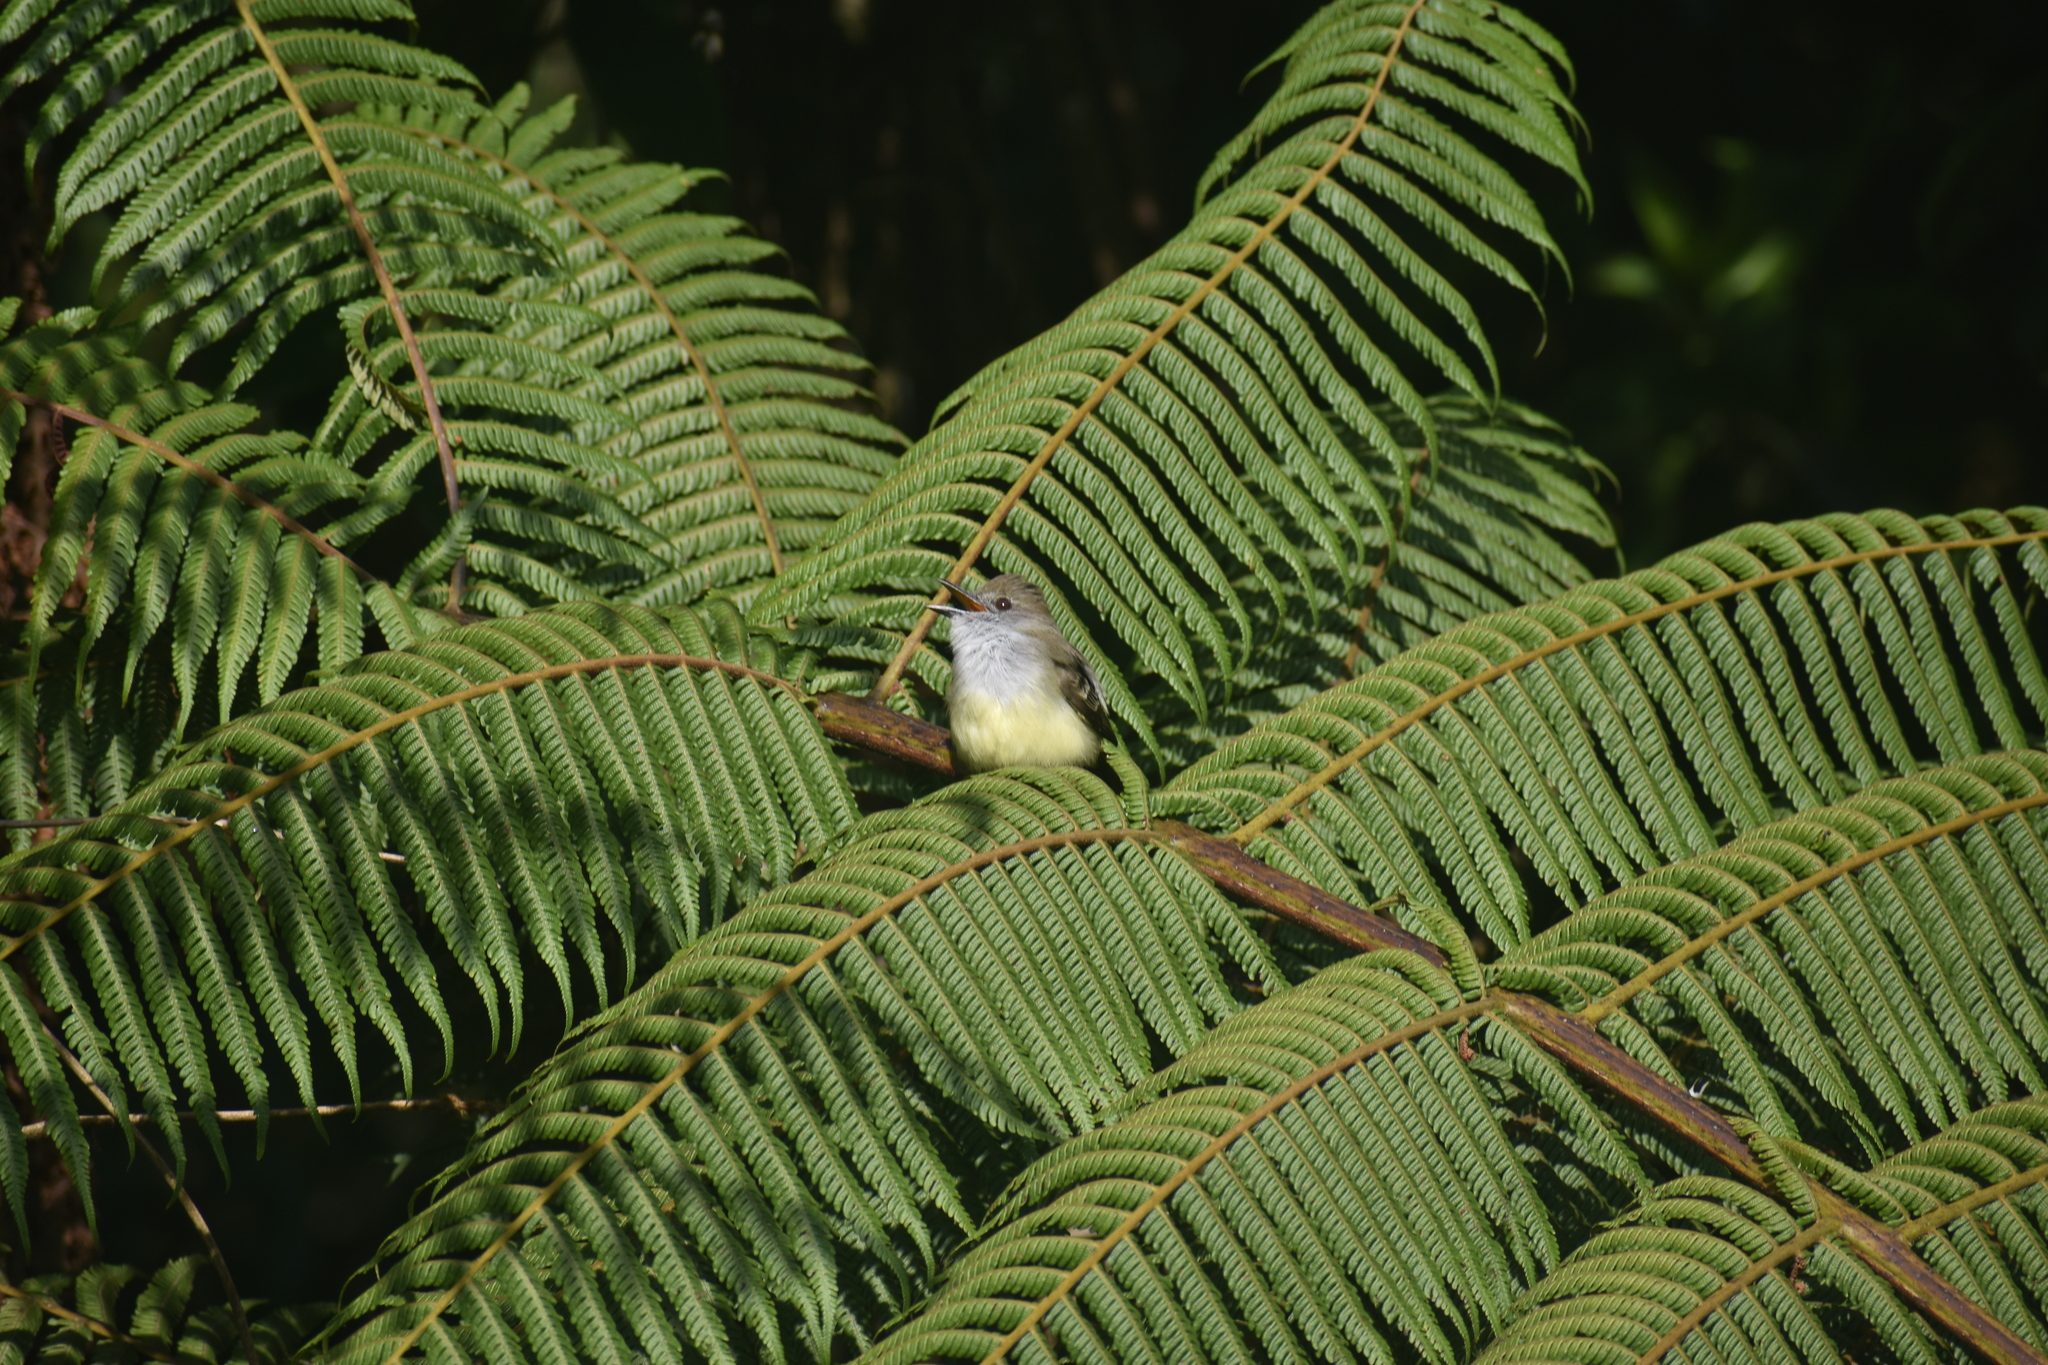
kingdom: Animalia
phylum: Chordata
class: Aves
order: Passeriformes
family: Tyrannidae
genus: Myiarchus
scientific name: Myiarchus cephalotes
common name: Pale-edged flycatcher
